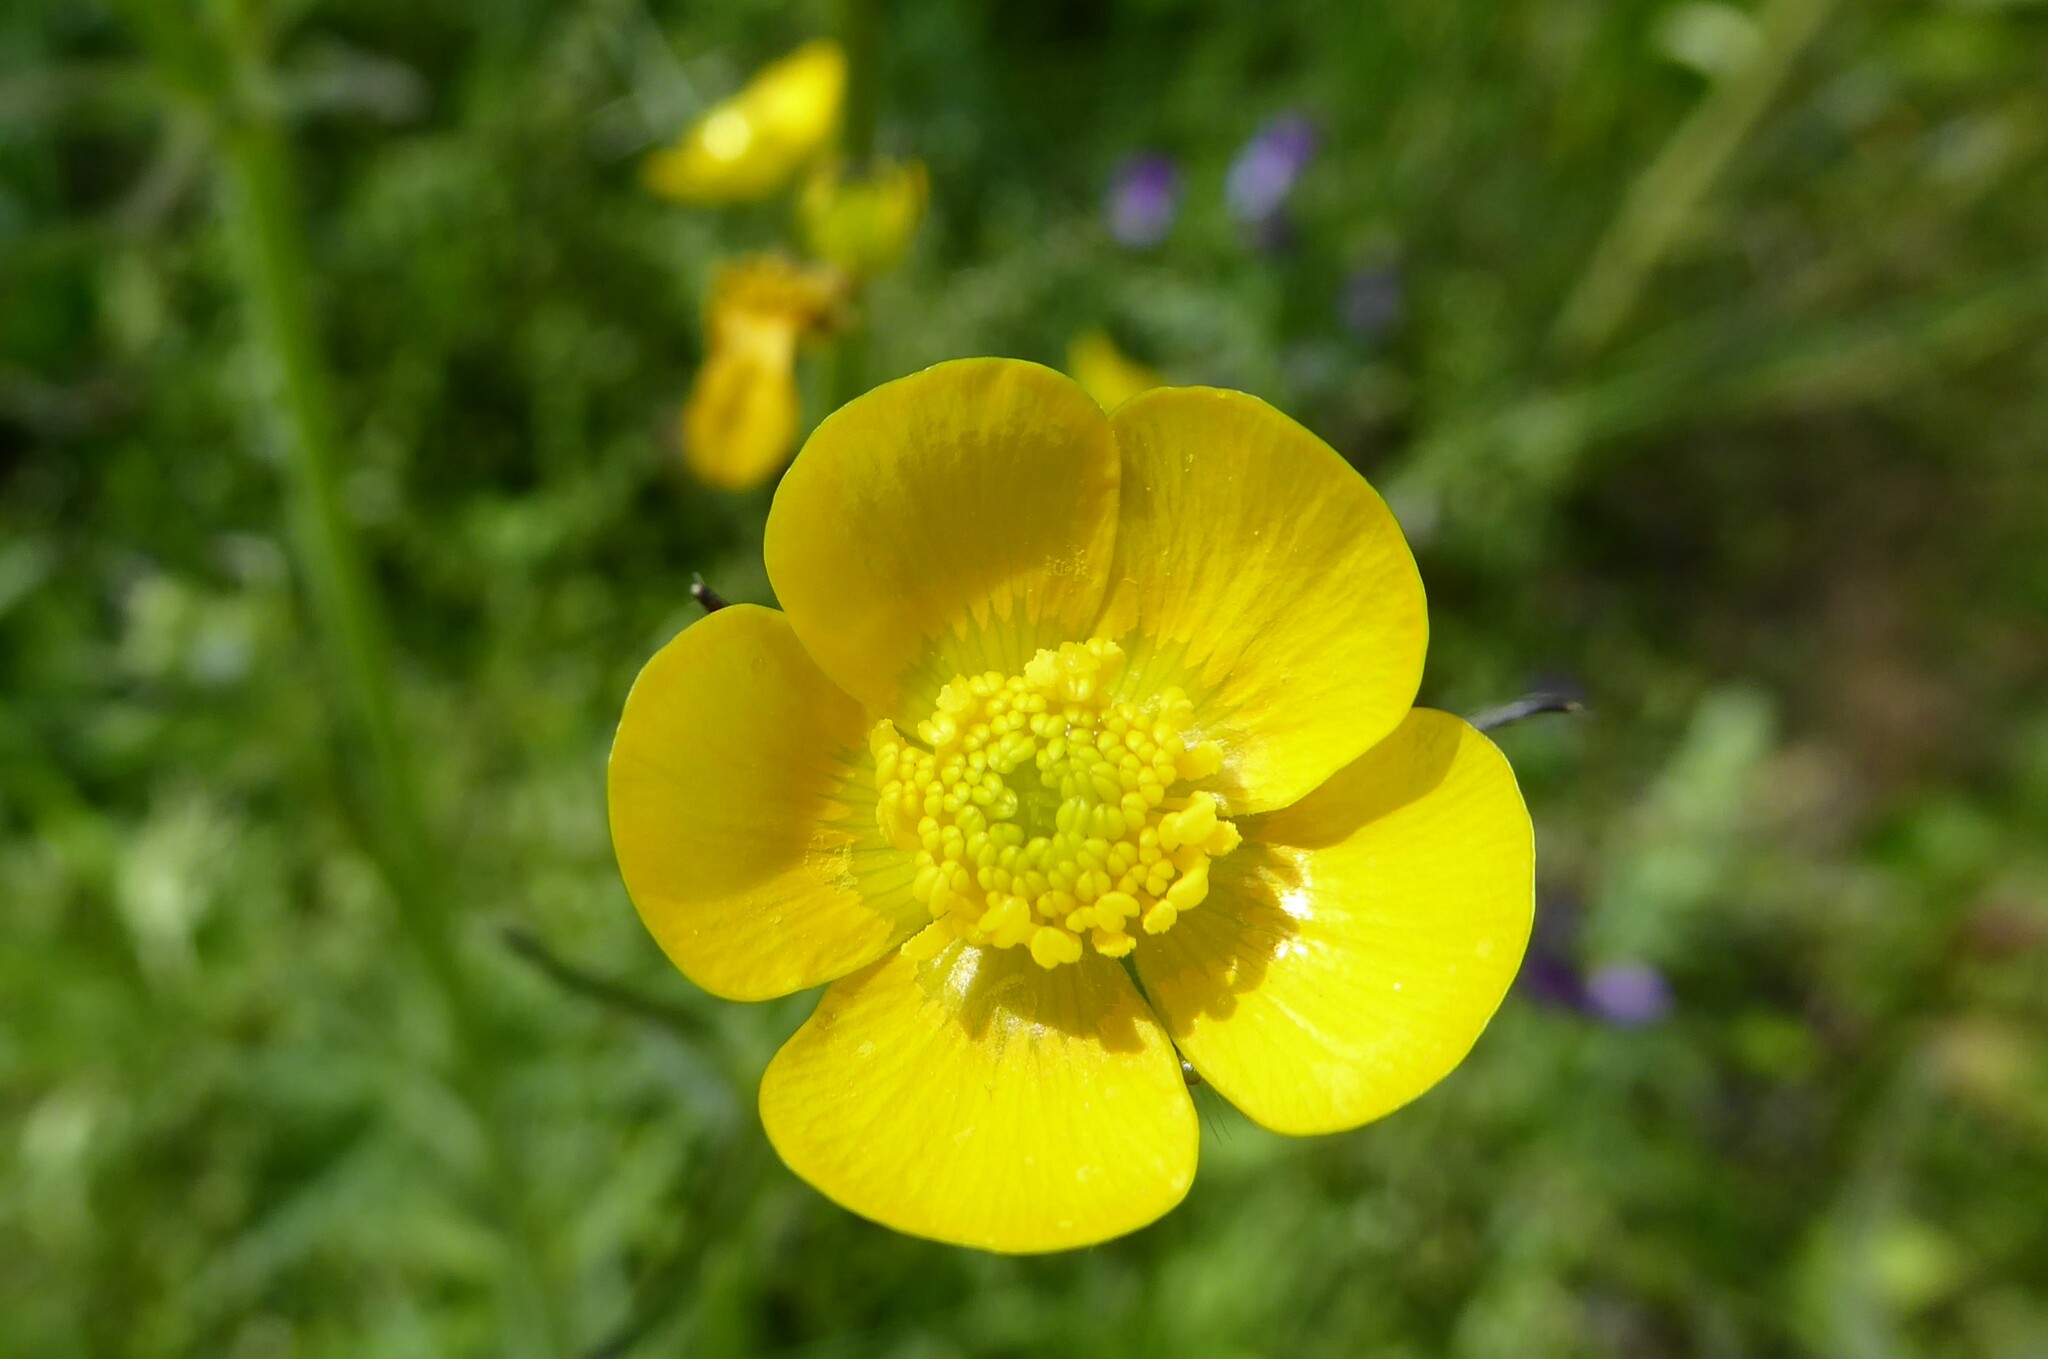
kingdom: Plantae
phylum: Tracheophyta
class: Magnoliopsida
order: Ranunculales
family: Ranunculaceae
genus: Ranunculus
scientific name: Ranunculus acris
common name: Meadow buttercup
